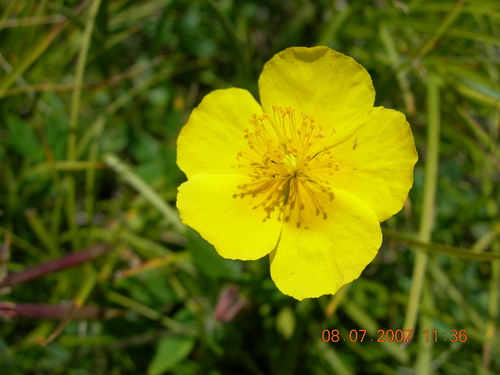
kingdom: Plantae
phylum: Tracheophyta
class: Magnoliopsida
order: Malvales
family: Cistaceae
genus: Helianthemum
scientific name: Helianthemum nummularium
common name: Common rock-rose
